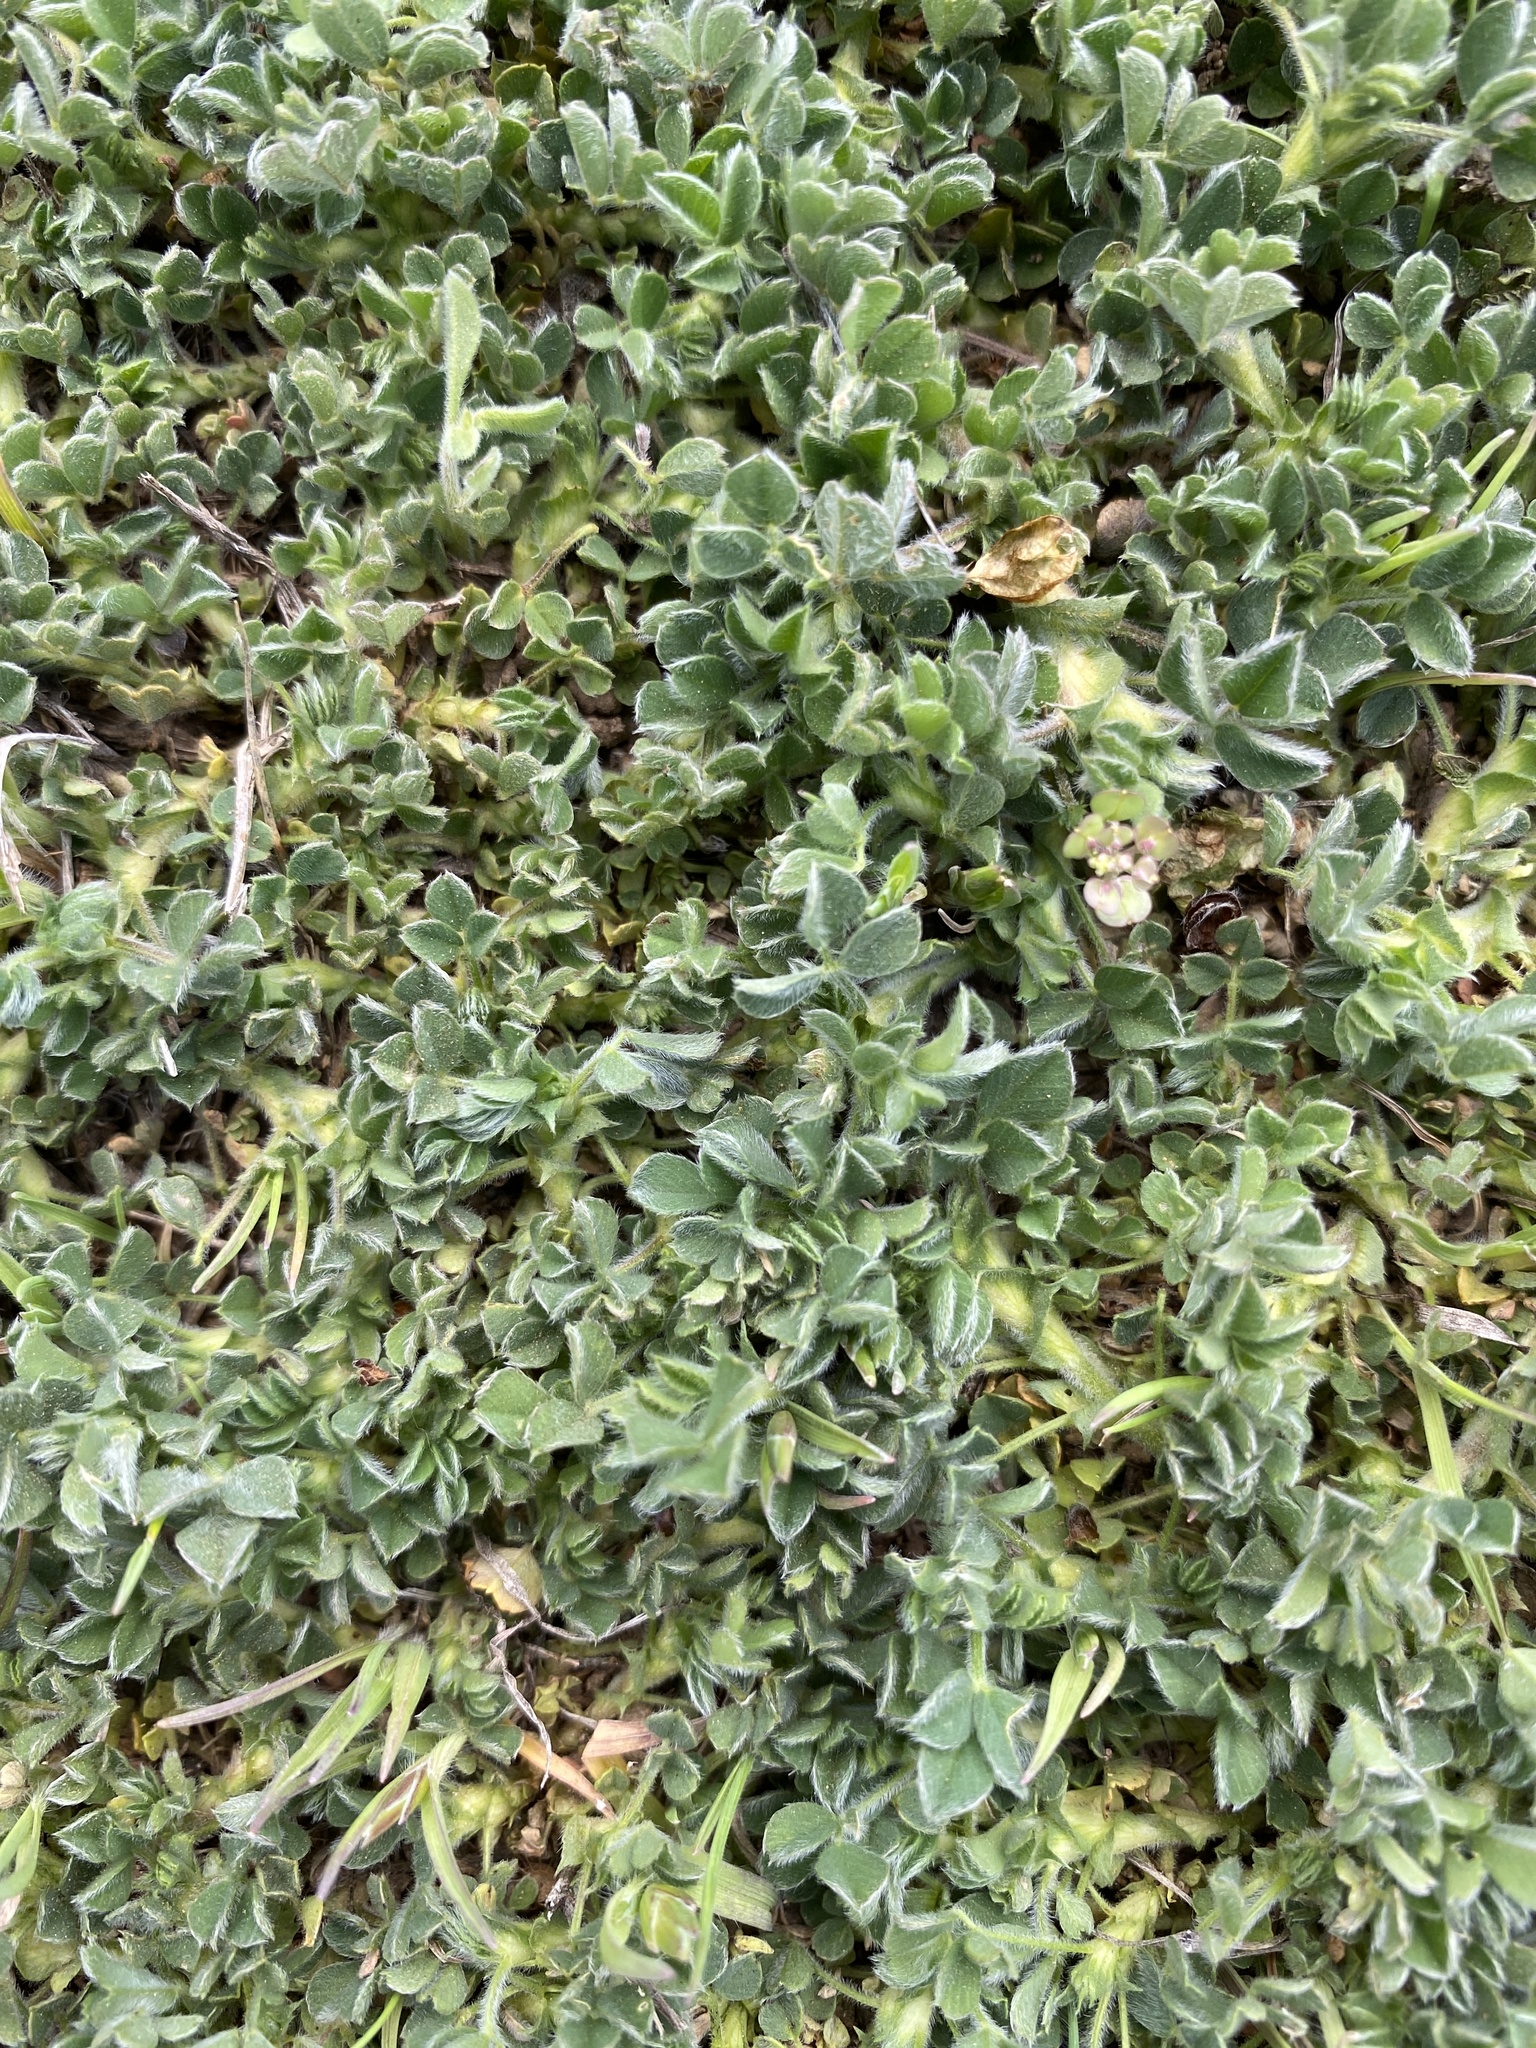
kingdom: Plantae
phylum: Tracheophyta
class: Magnoliopsida
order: Fabales
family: Fabaceae
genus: Medicago
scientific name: Medicago minima
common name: Little bur-clover
